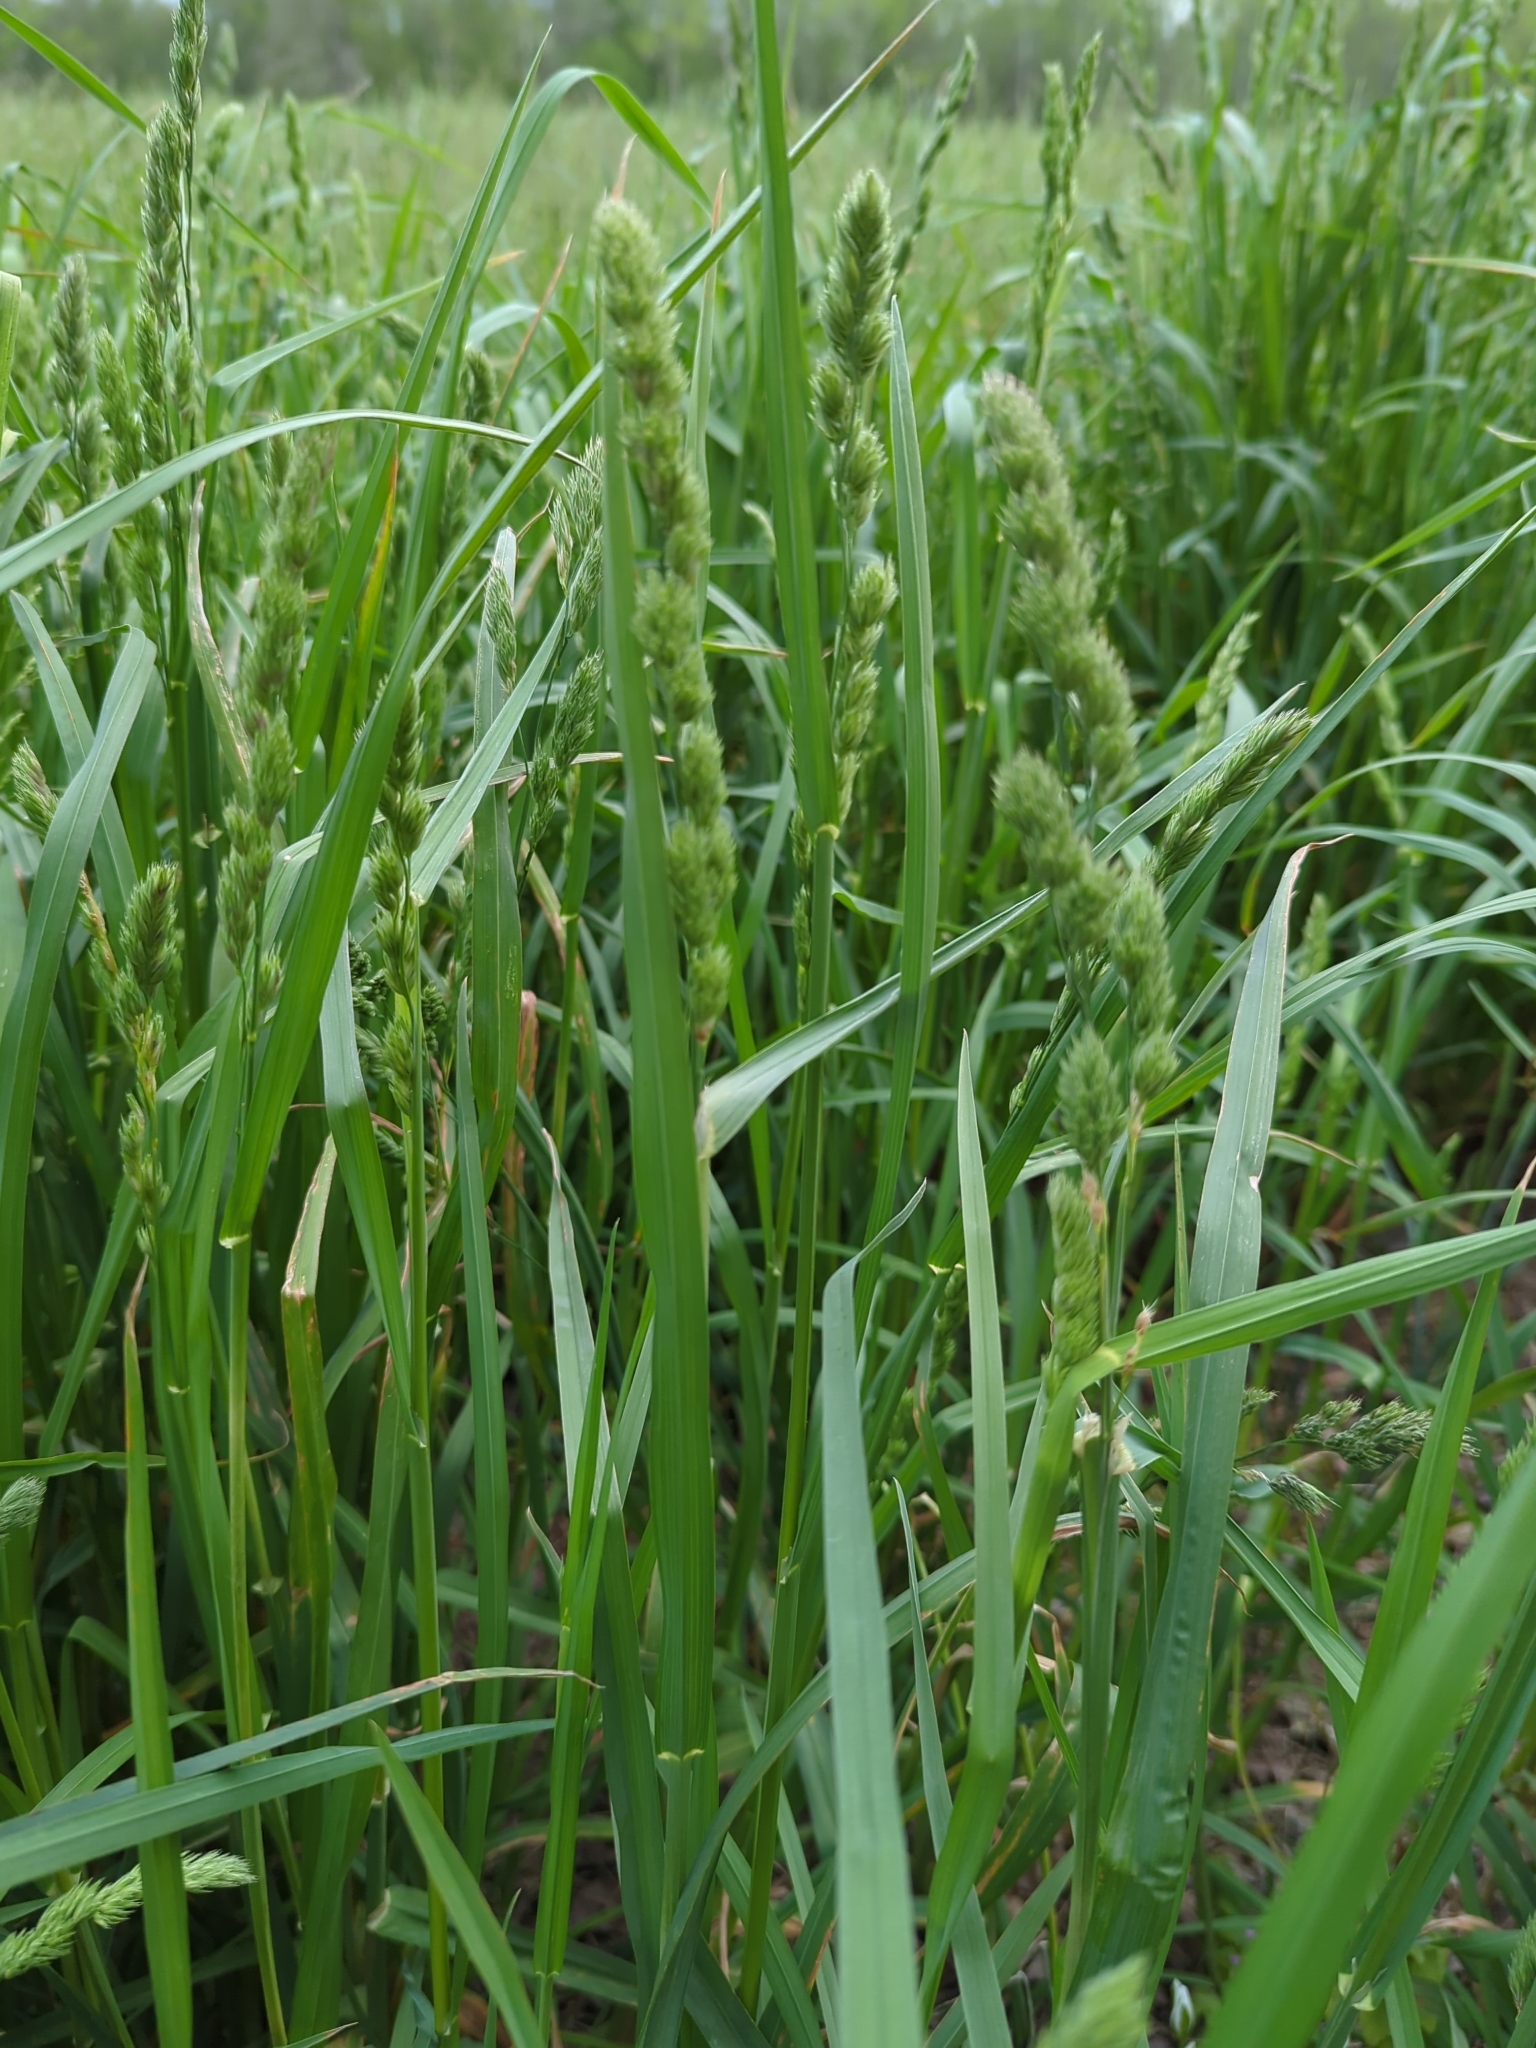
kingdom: Plantae
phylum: Tracheophyta
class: Liliopsida
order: Poales
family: Poaceae
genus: Dactylis
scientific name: Dactylis glomerata
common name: Orchardgrass
